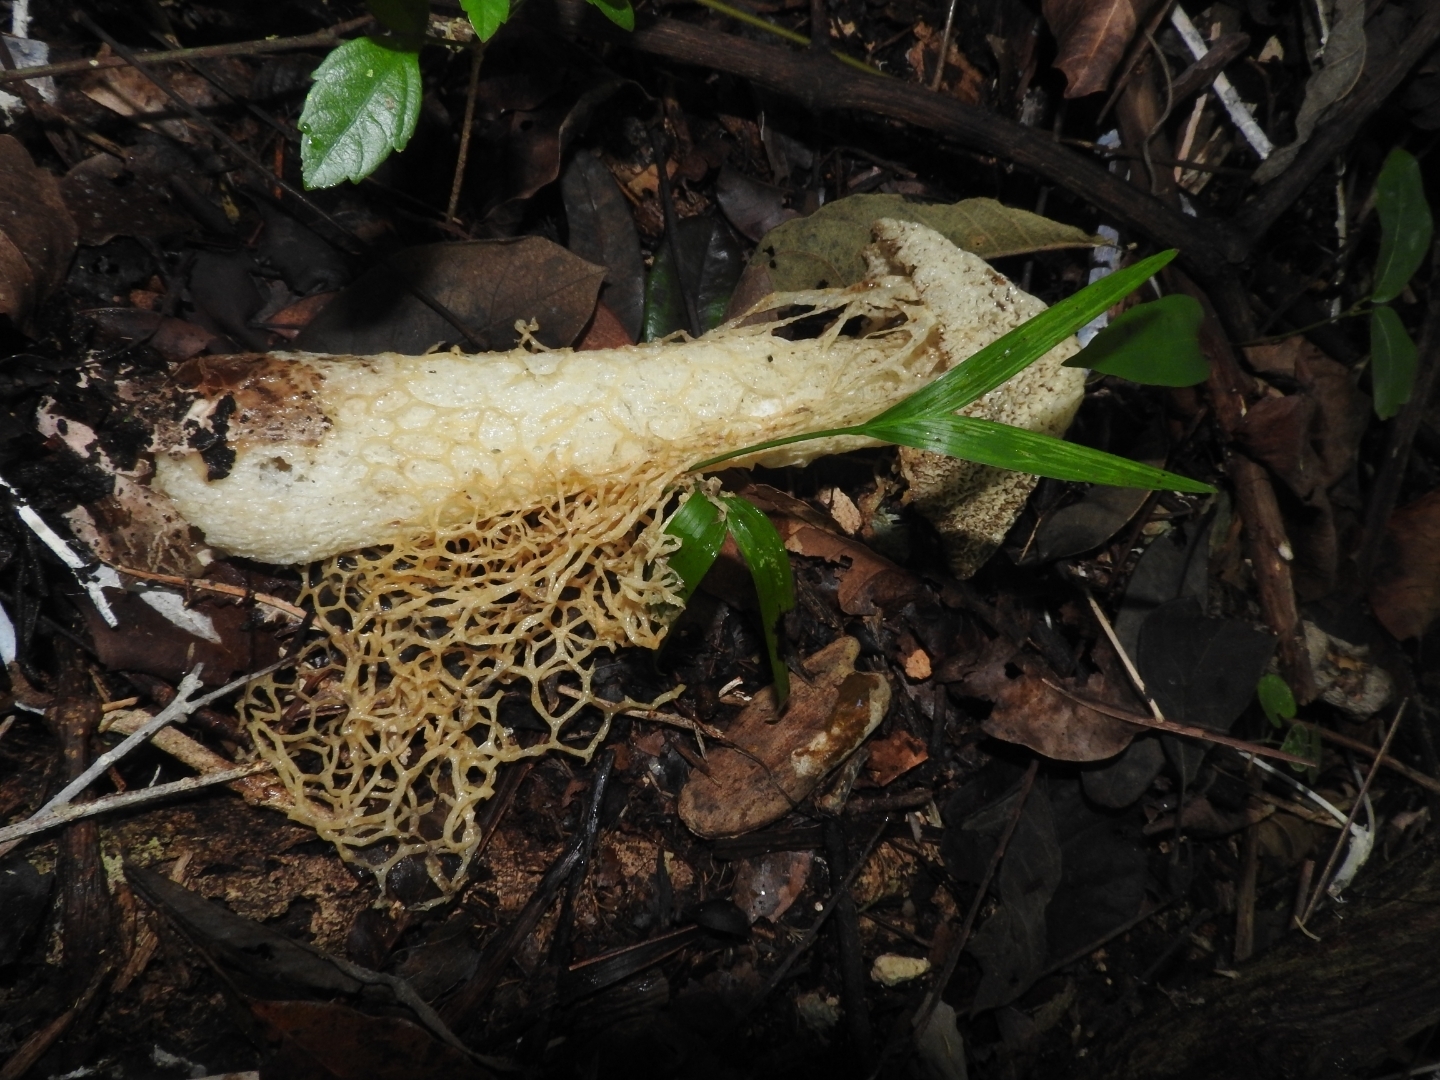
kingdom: Fungi
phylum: Basidiomycota
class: Agaricomycetes
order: Phallales
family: Phallaceae
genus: Phallus
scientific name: Phallus haitangensis
